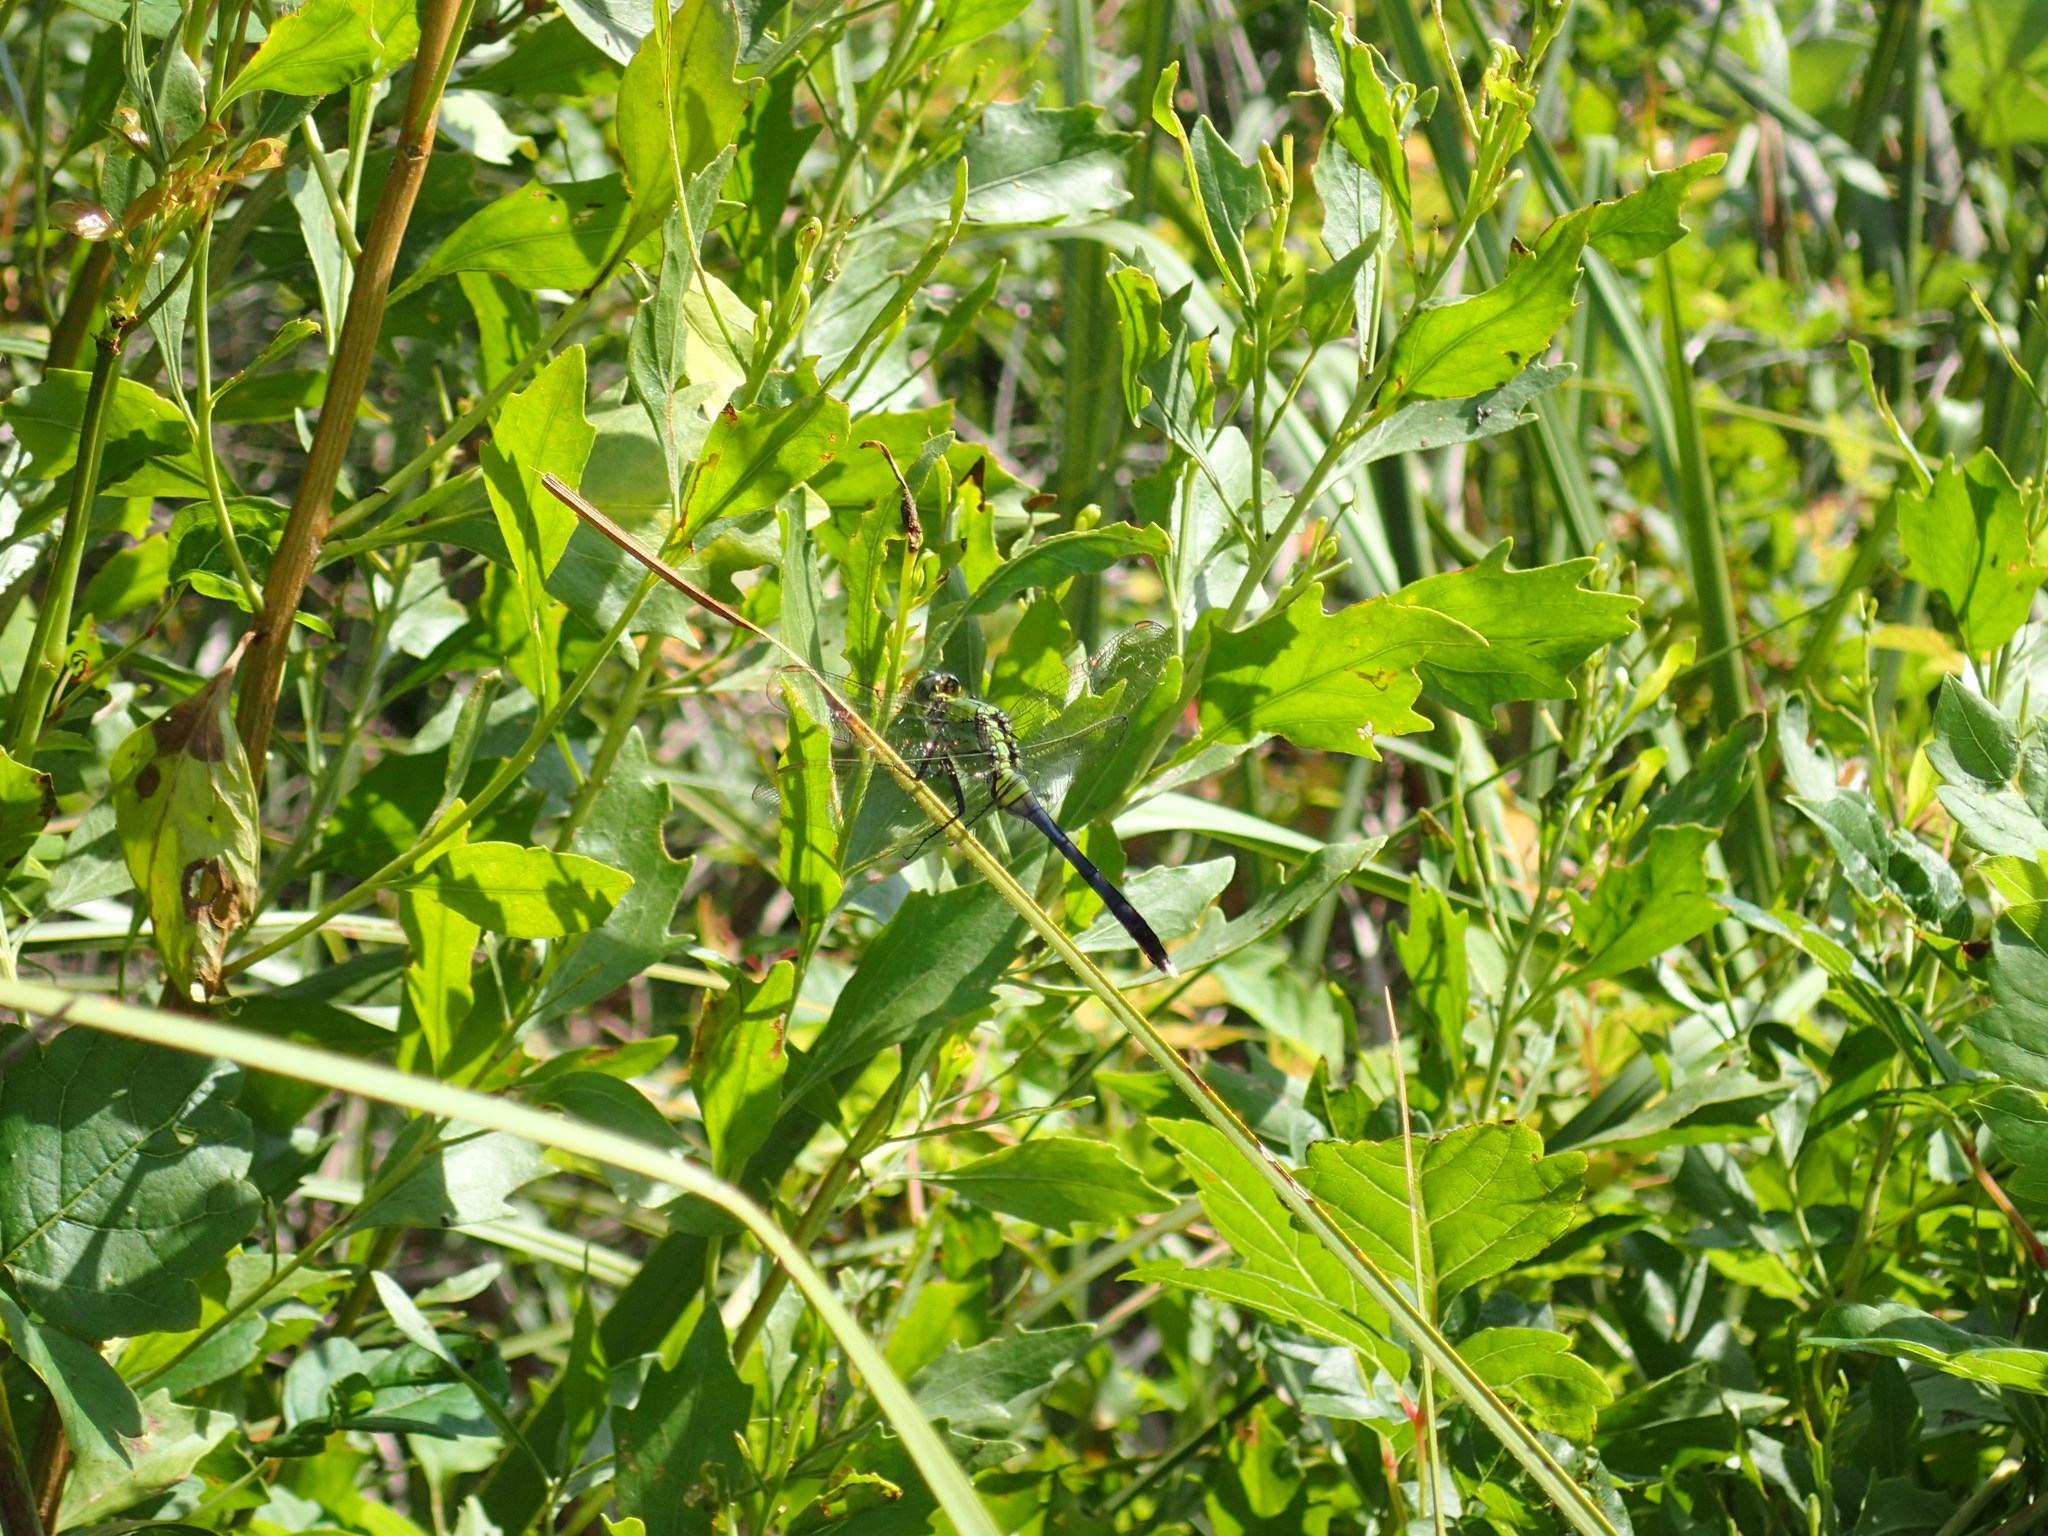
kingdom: Animalia
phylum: Arthropoda
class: Insecta
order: Odonata
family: Libellulidae
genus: Erythemis
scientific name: Erythemis simplicicollis
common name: Eastern pondhawk
